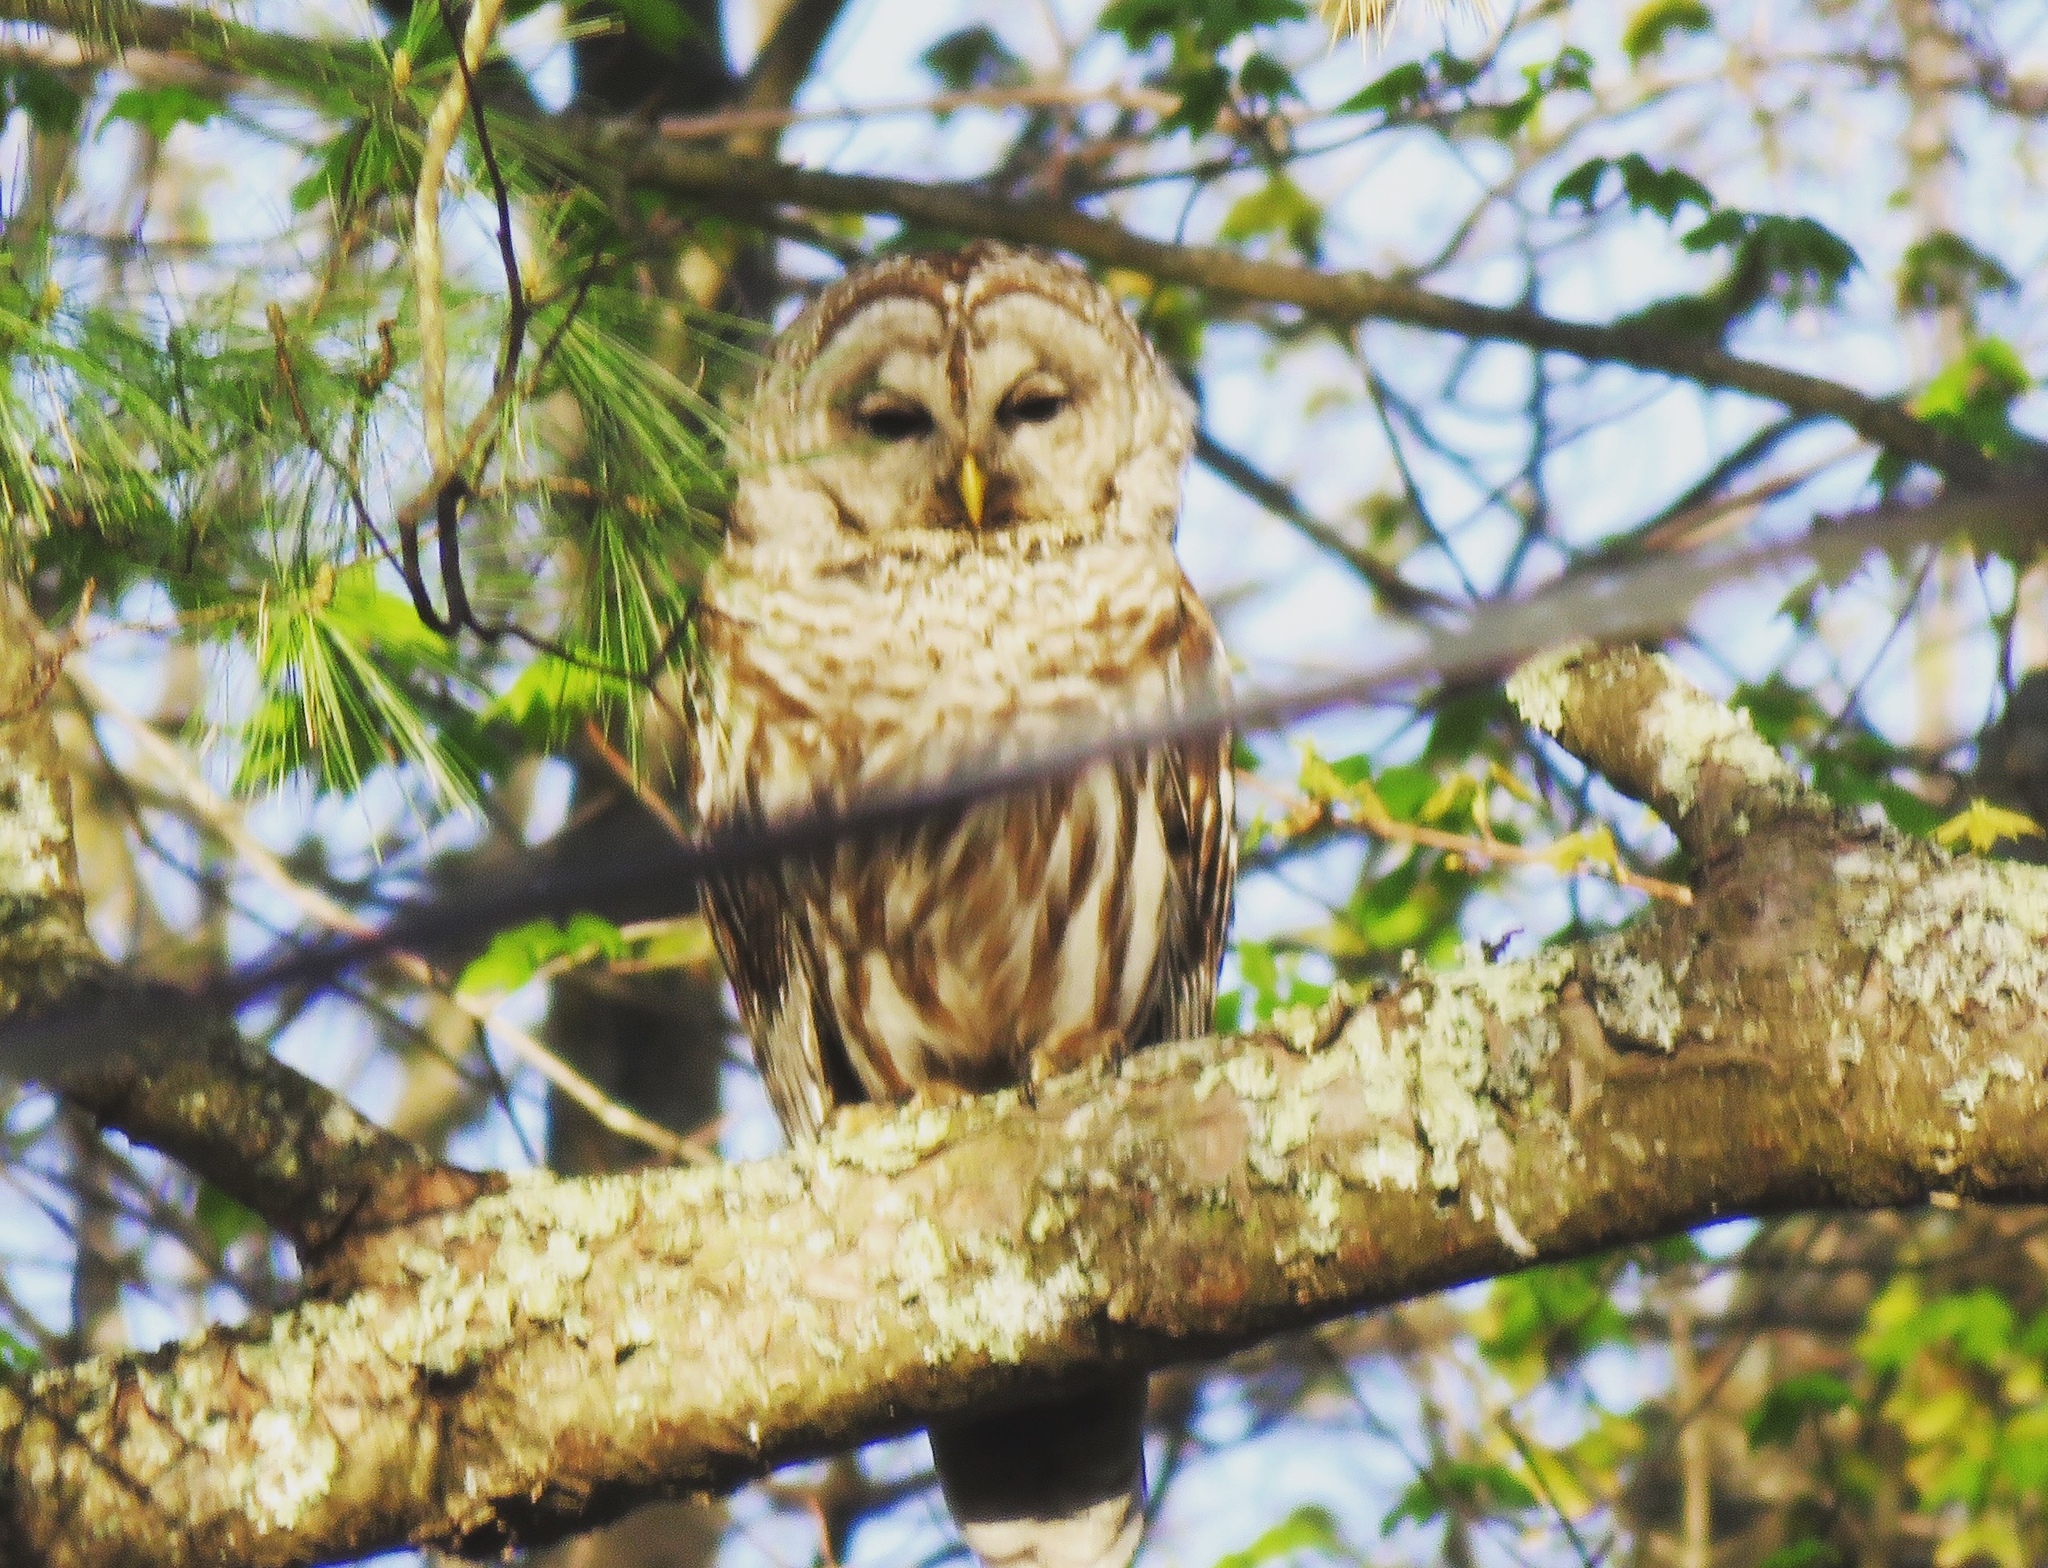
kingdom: Animalia
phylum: Chordata
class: Aves
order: Strigiformes
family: Strigidae
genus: Strix
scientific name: Strix varia
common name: Barred owl
